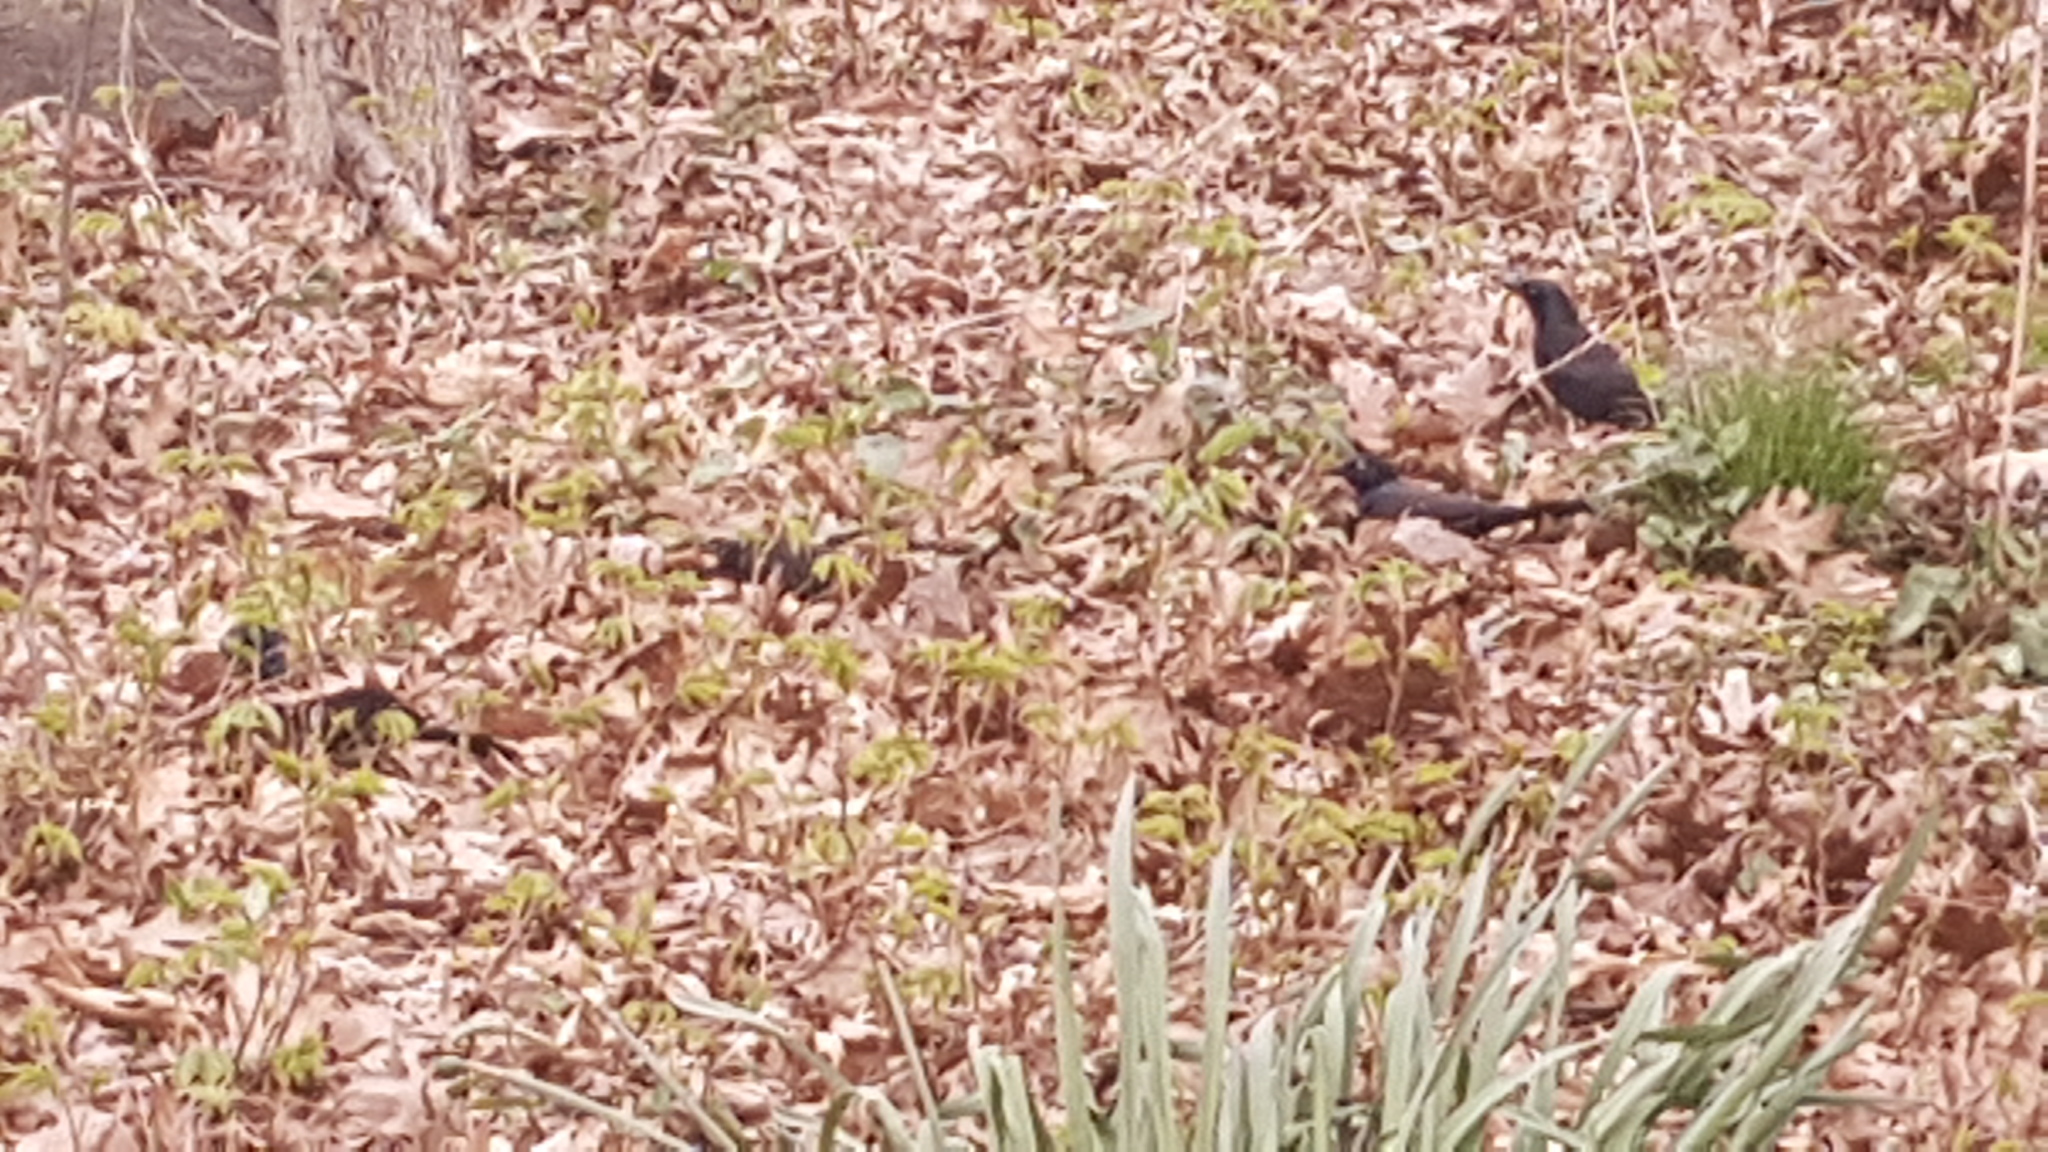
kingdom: Animalia
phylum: Chordata
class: Aves
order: Passeriformes
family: Icteridae
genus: Quiscalus
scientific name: Quiscalus quiscula
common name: Common grackle
